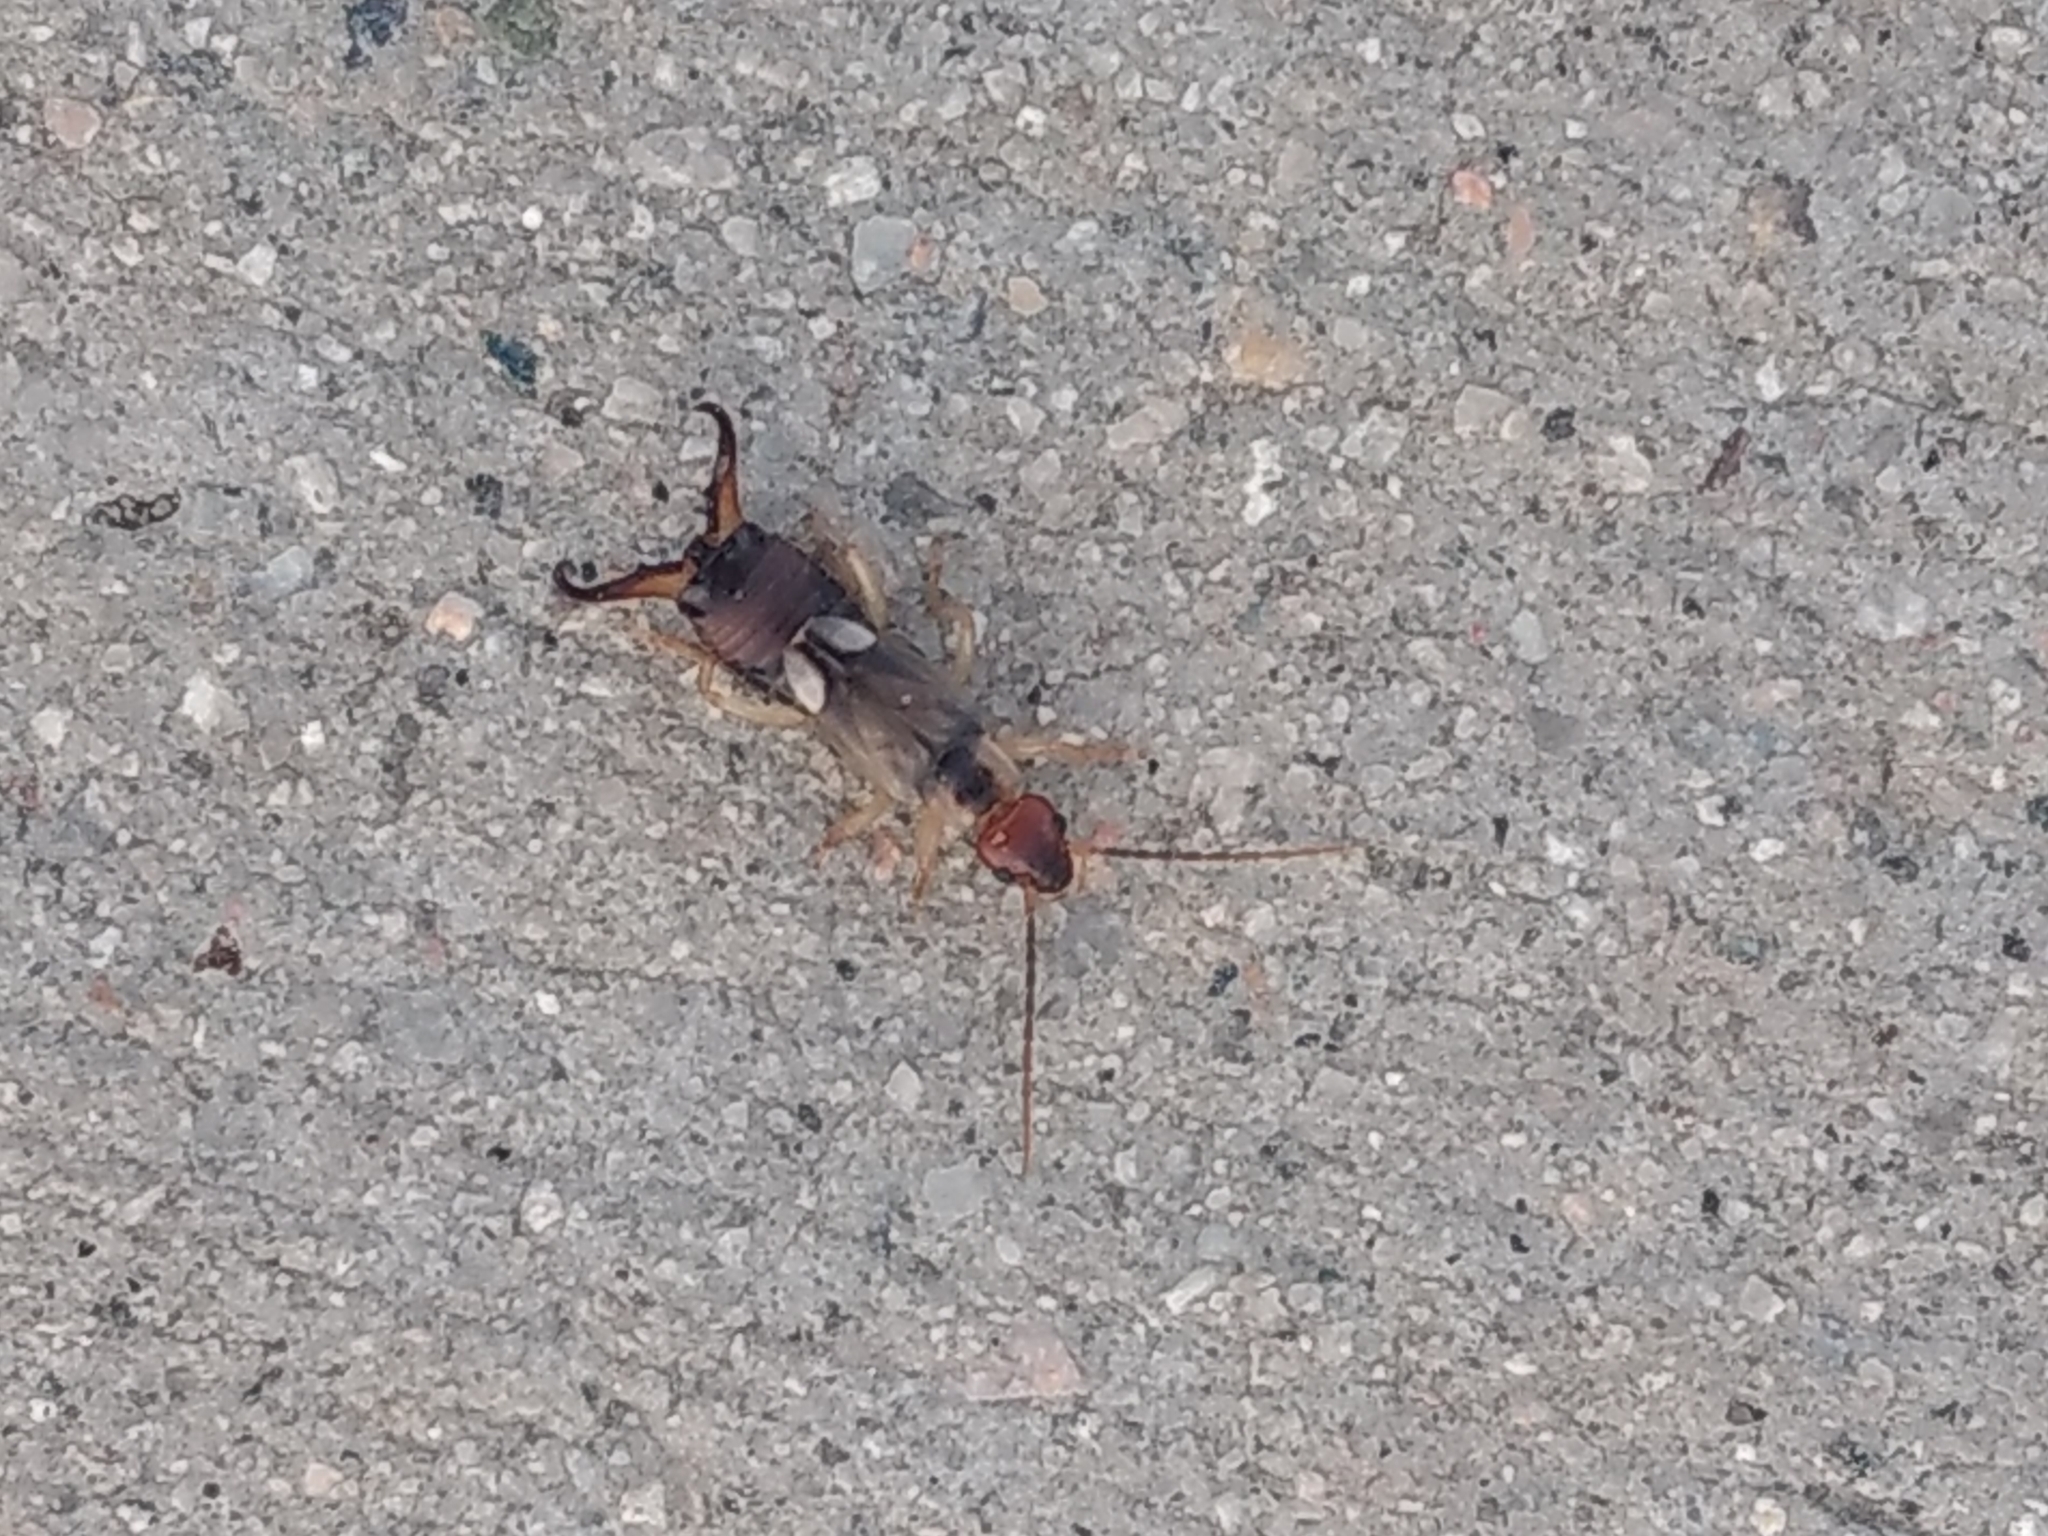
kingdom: Animalia
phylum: Arthropoda
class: Insecta
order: Dermaptera
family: Forficulidae
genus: Forficula
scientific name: Forficula
